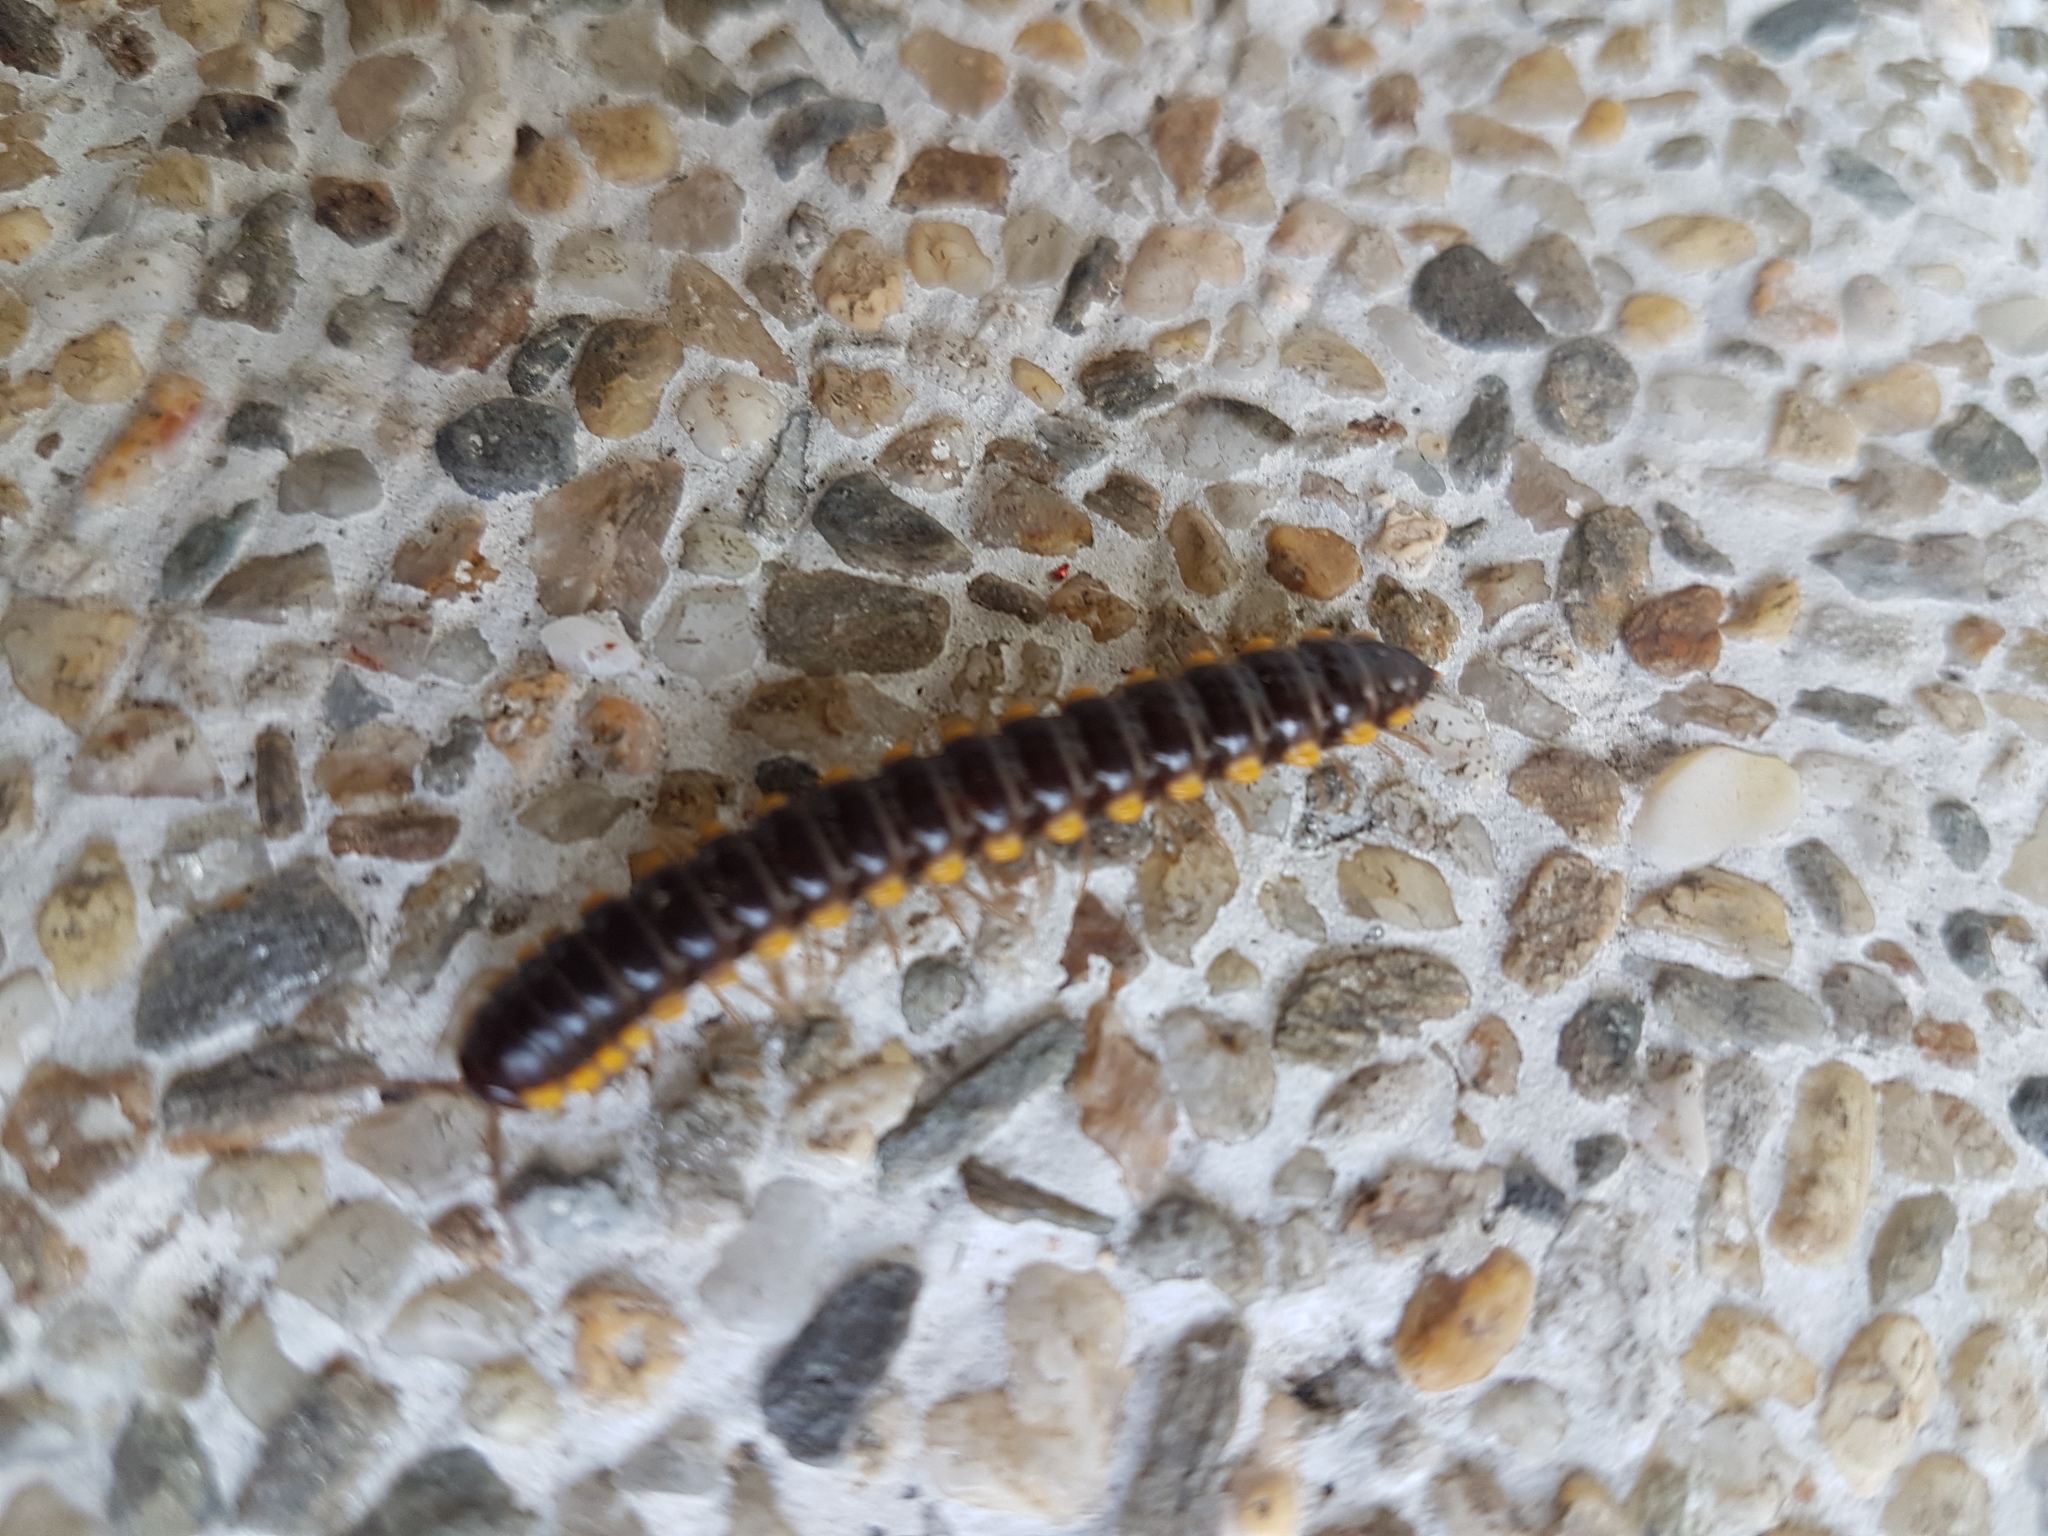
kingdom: Animalia
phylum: Arthropoda
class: Diplopoda
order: Polydesmida
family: Paradoxosomatidae
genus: Anoplodesmus
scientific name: Anoplodesmus saussurii
